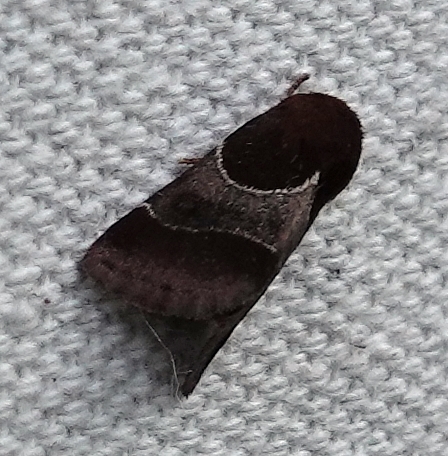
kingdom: Animalia
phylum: Arthropoda
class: Insecta
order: Lepidoptera
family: Noctuidae
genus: Schinia
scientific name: Schinia arcigera
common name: Arcigera flower moth
